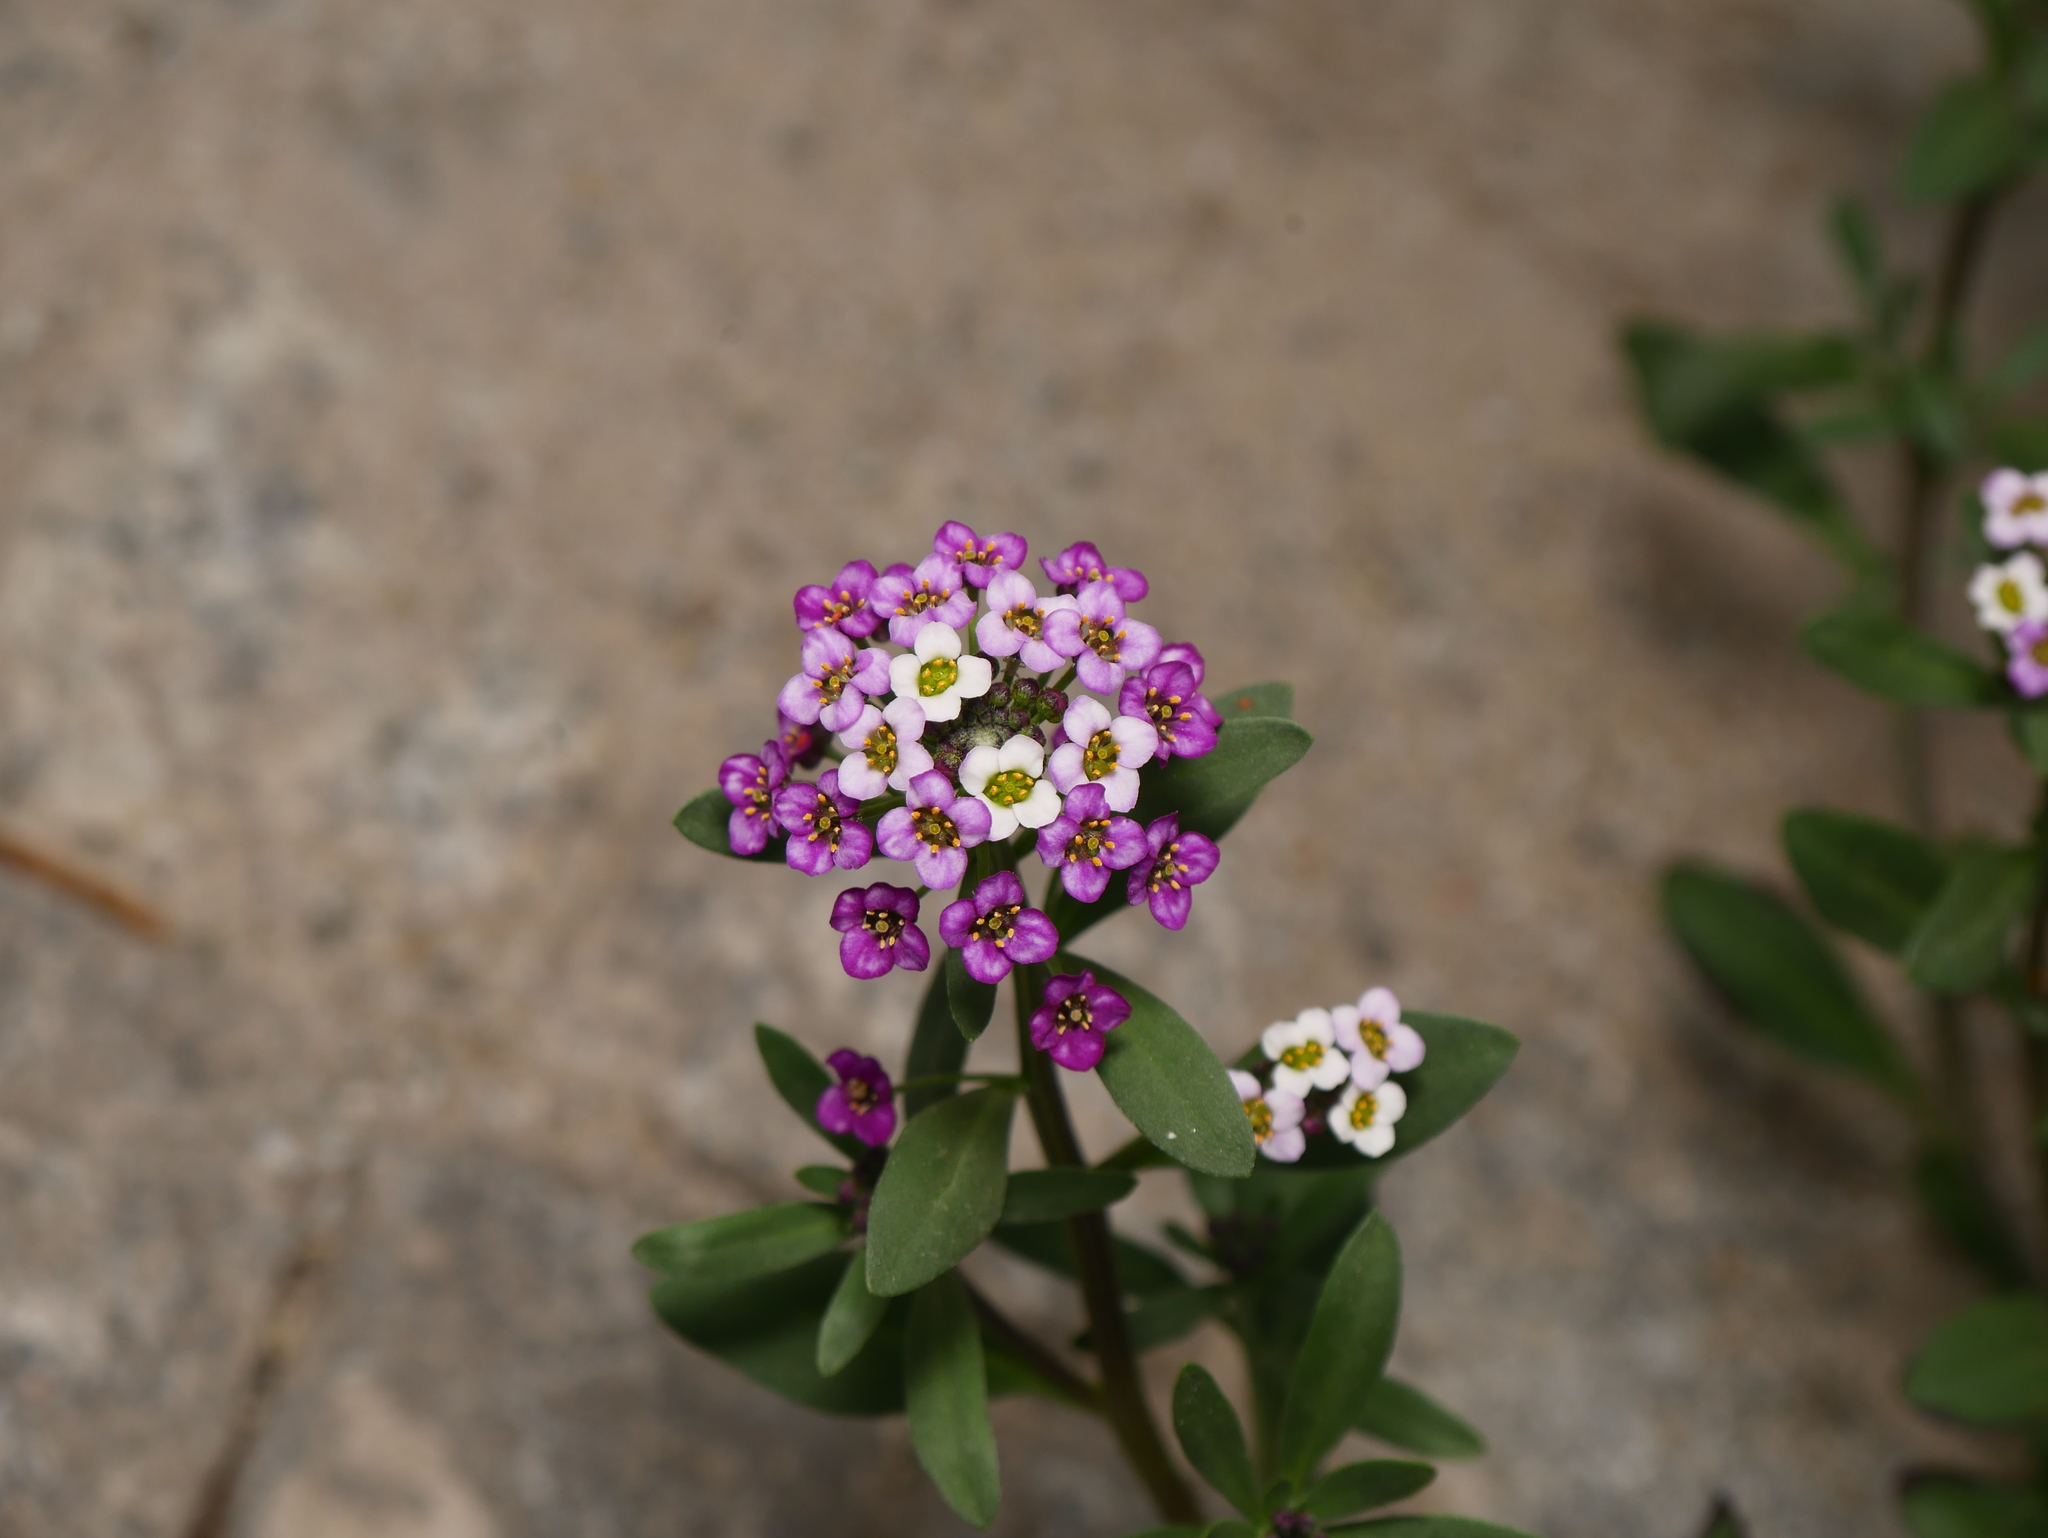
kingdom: Plantae
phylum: Tracheophyta
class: Magnoliopsida
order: Brassicales
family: Brassicaceae
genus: Lobularia
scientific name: Lobularia maritima
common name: Sweet alison
